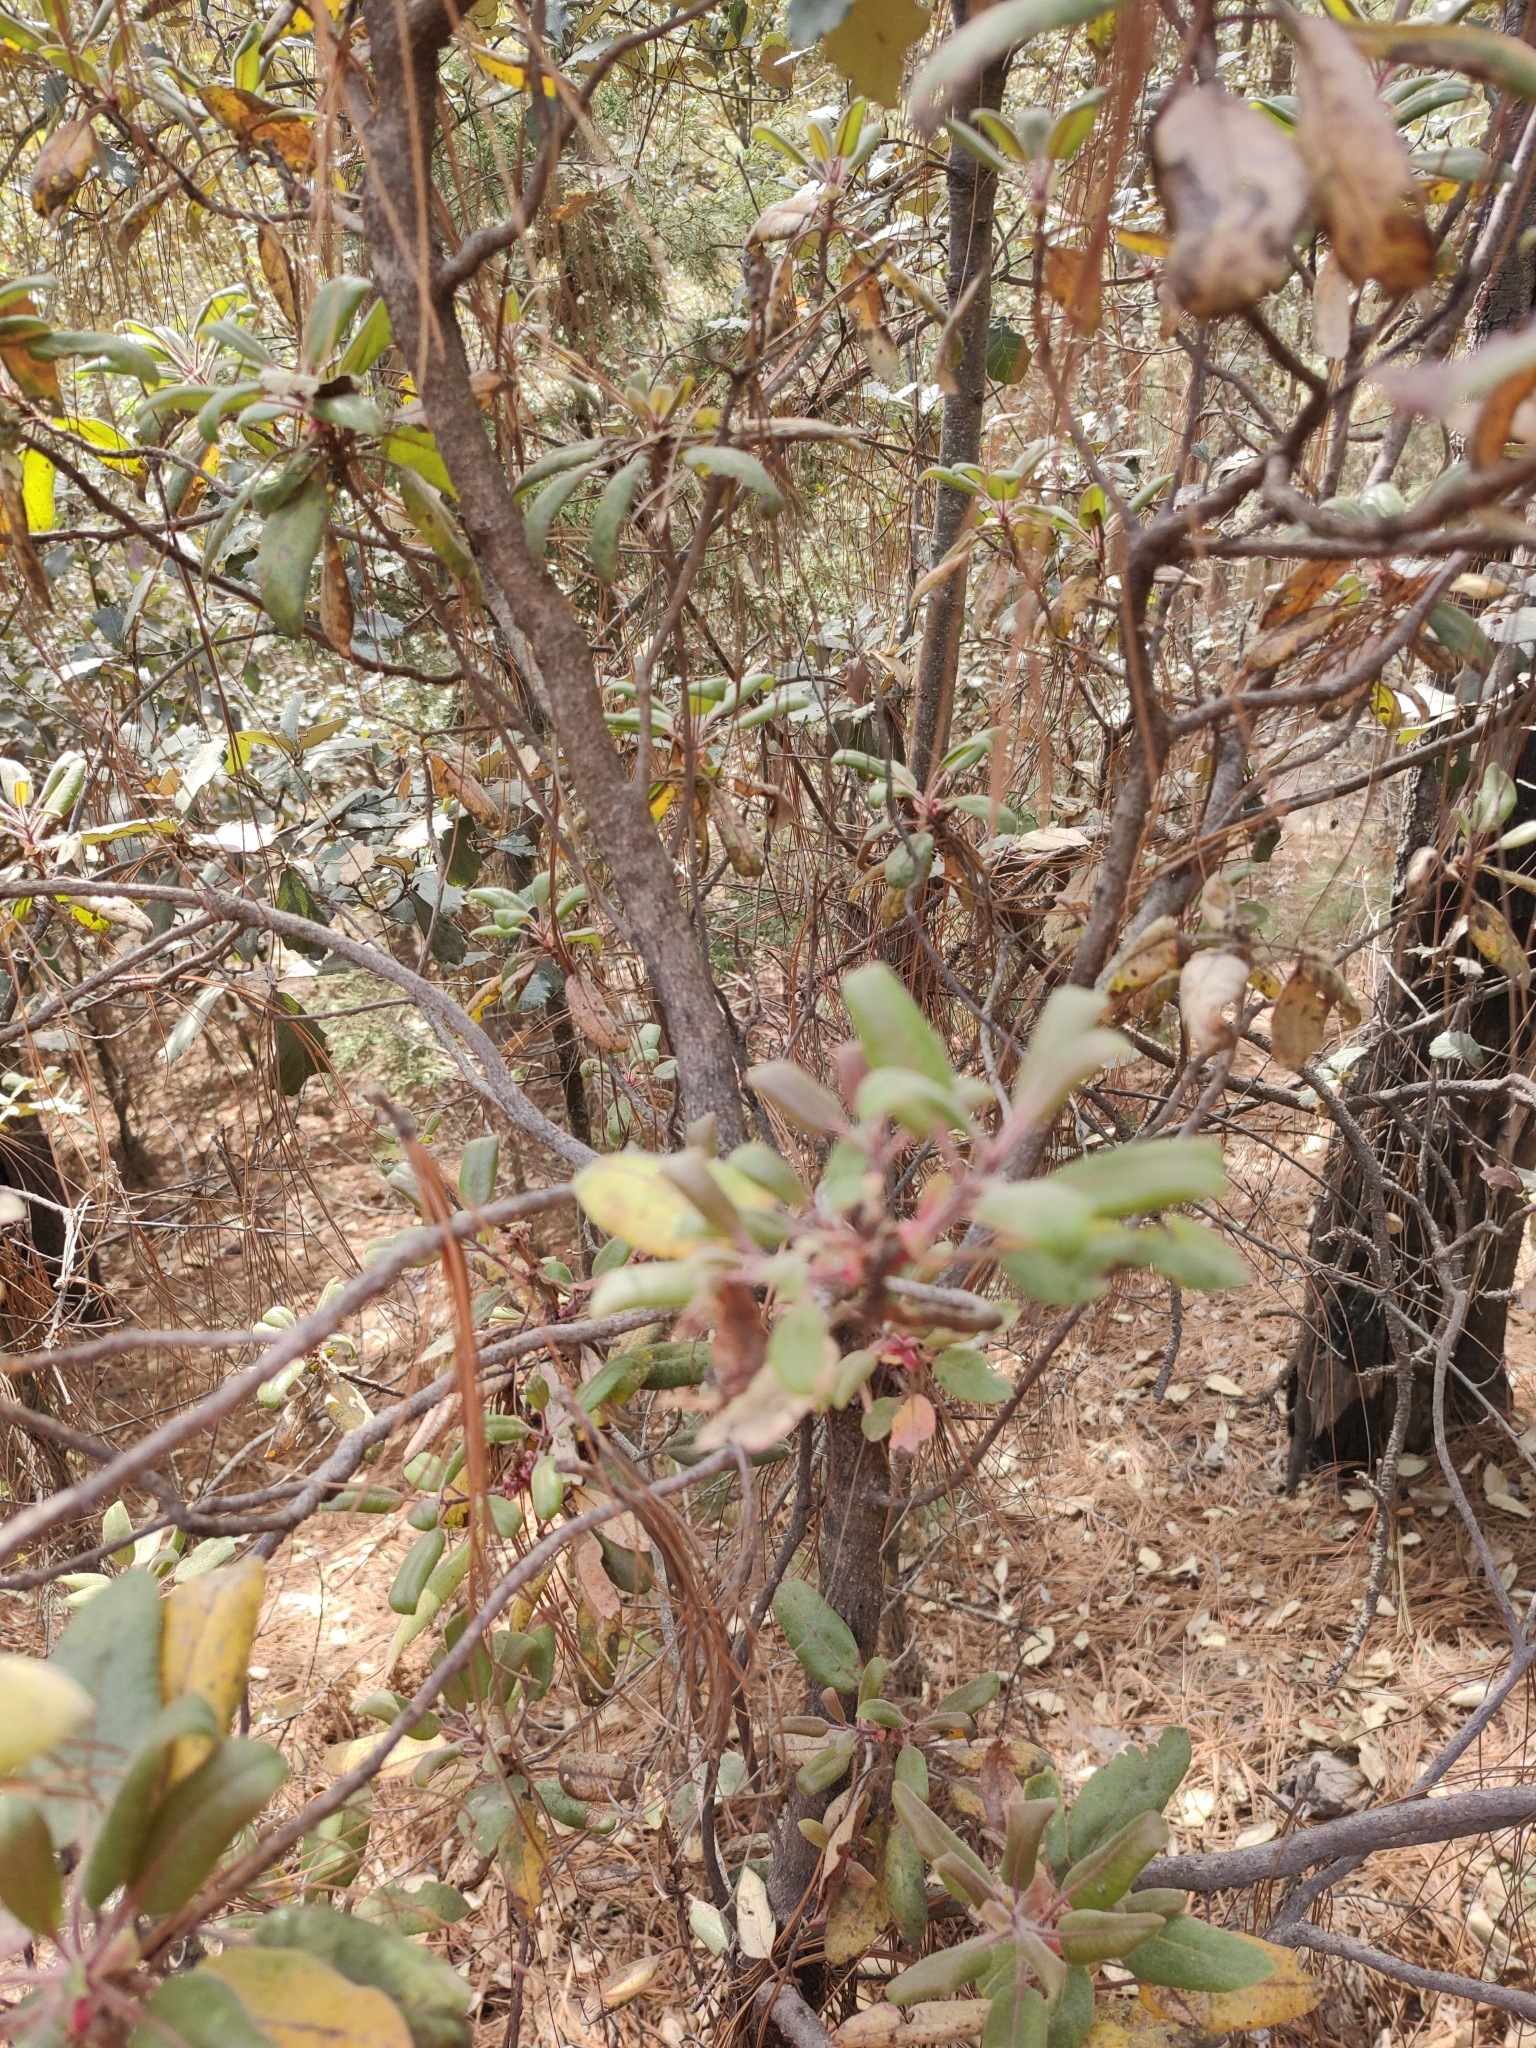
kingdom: Plantae
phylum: Tracheophyta
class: Magnoliopsida
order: Ericales
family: Ericaceae
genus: Arbutus
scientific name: Arbutus tessellata
